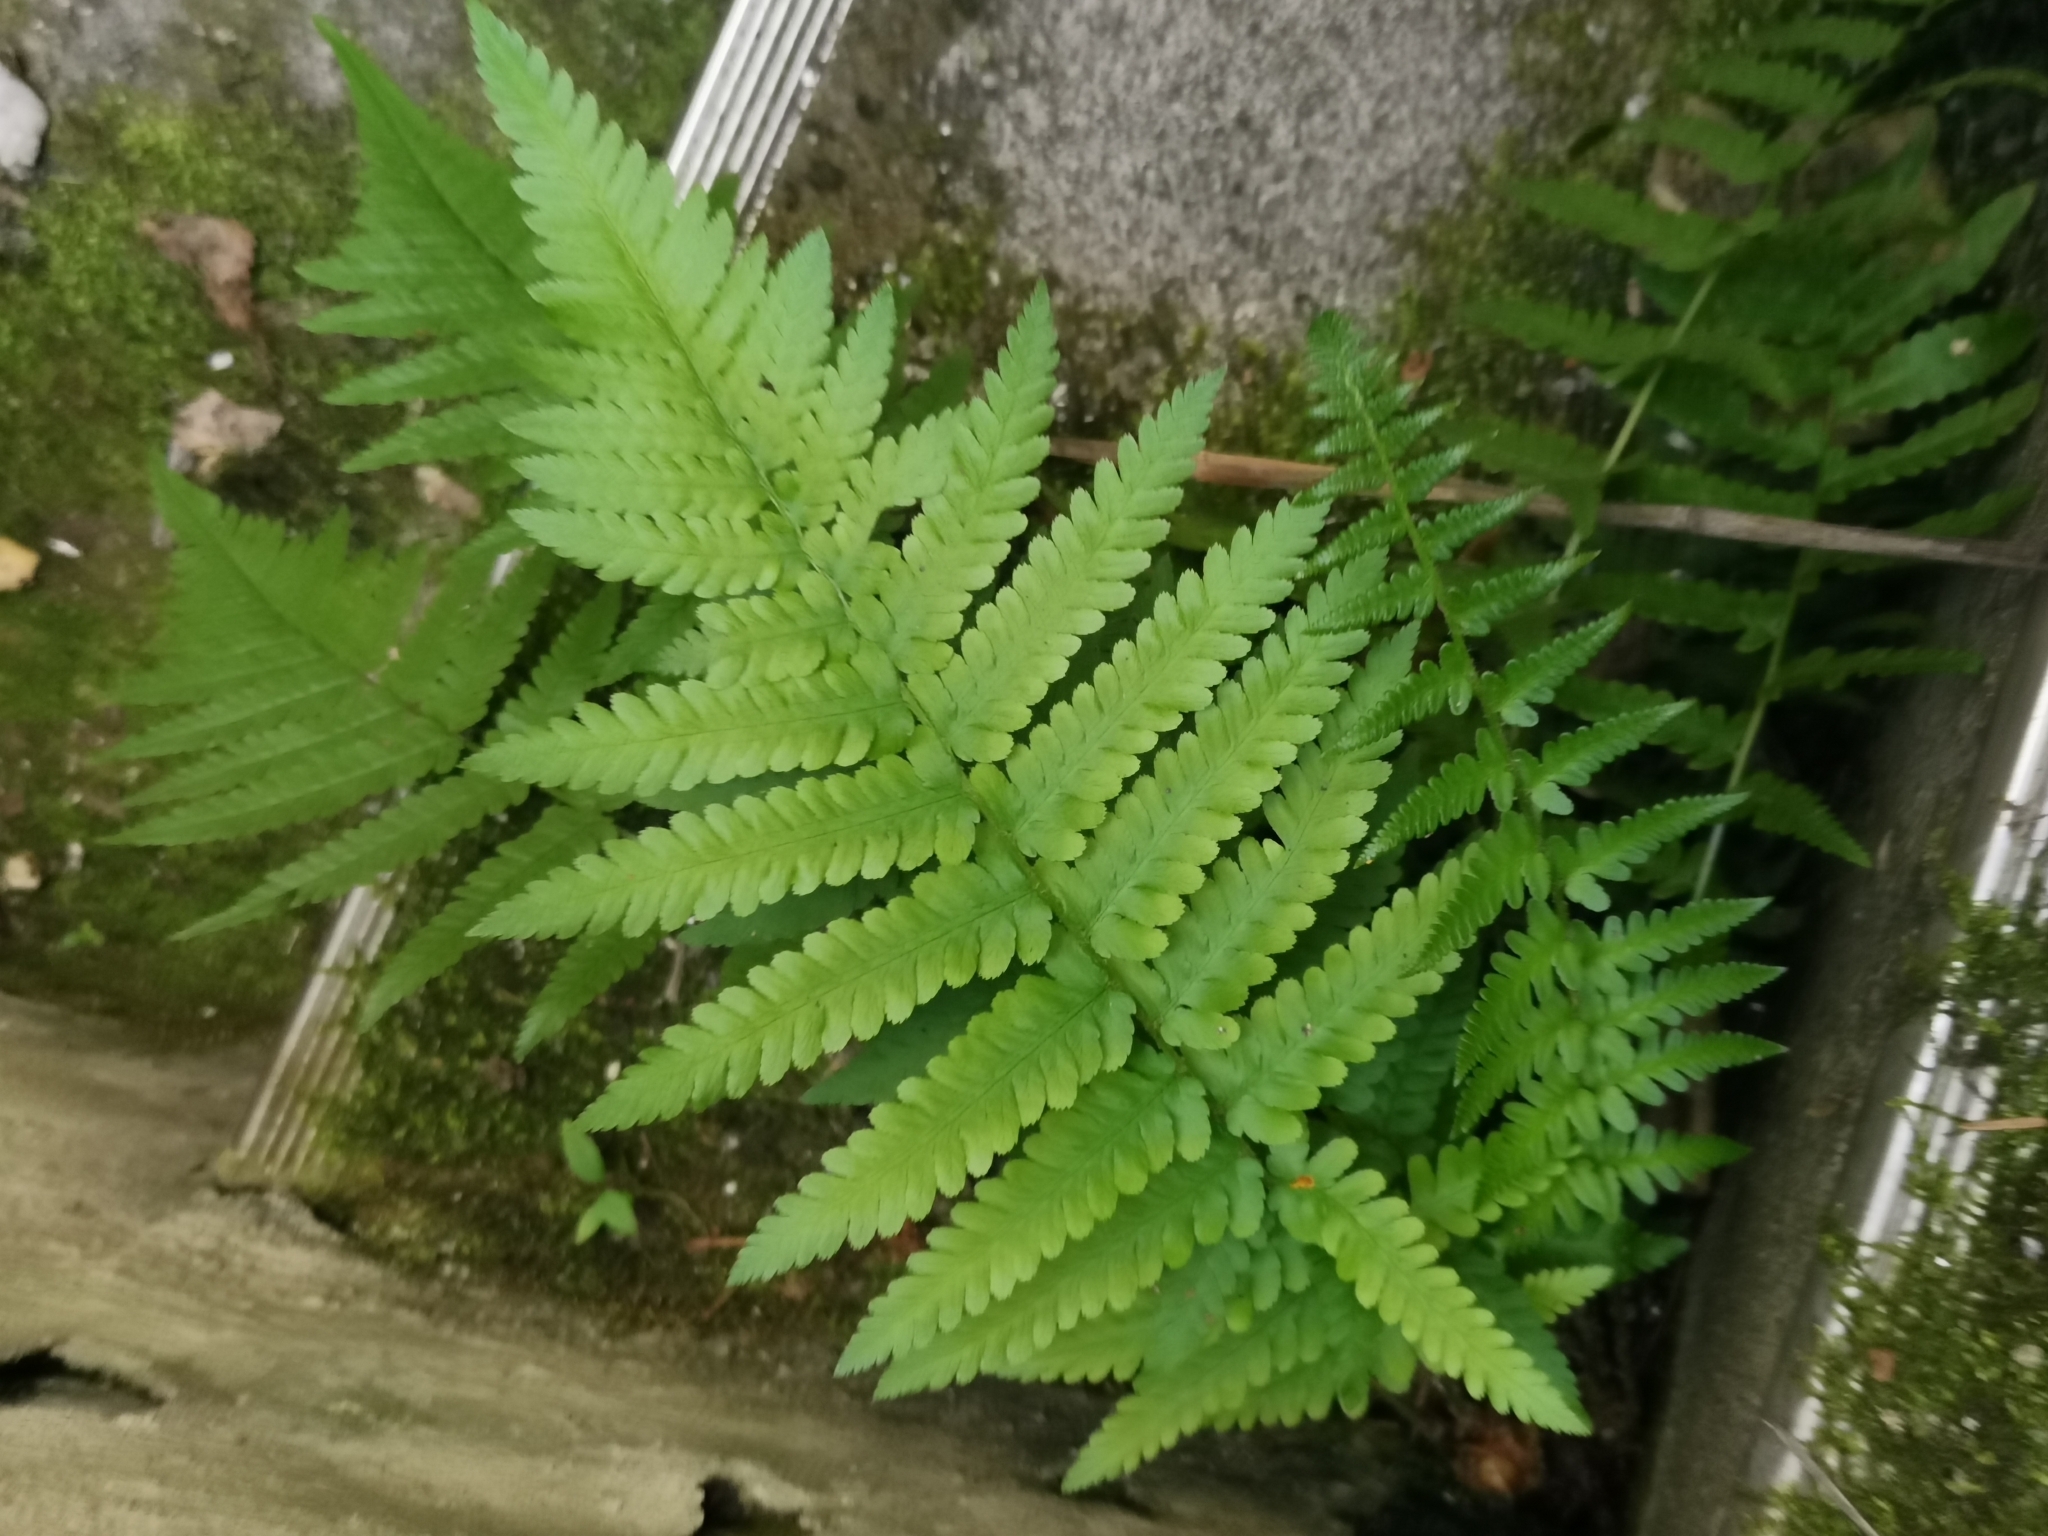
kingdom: Plantae
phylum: Tracheophyta
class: Polypodiopsida
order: Polypodiales
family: Dryopteridaceae
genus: Dryopteris
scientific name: Dryopteris filix-mas
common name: Male fern
